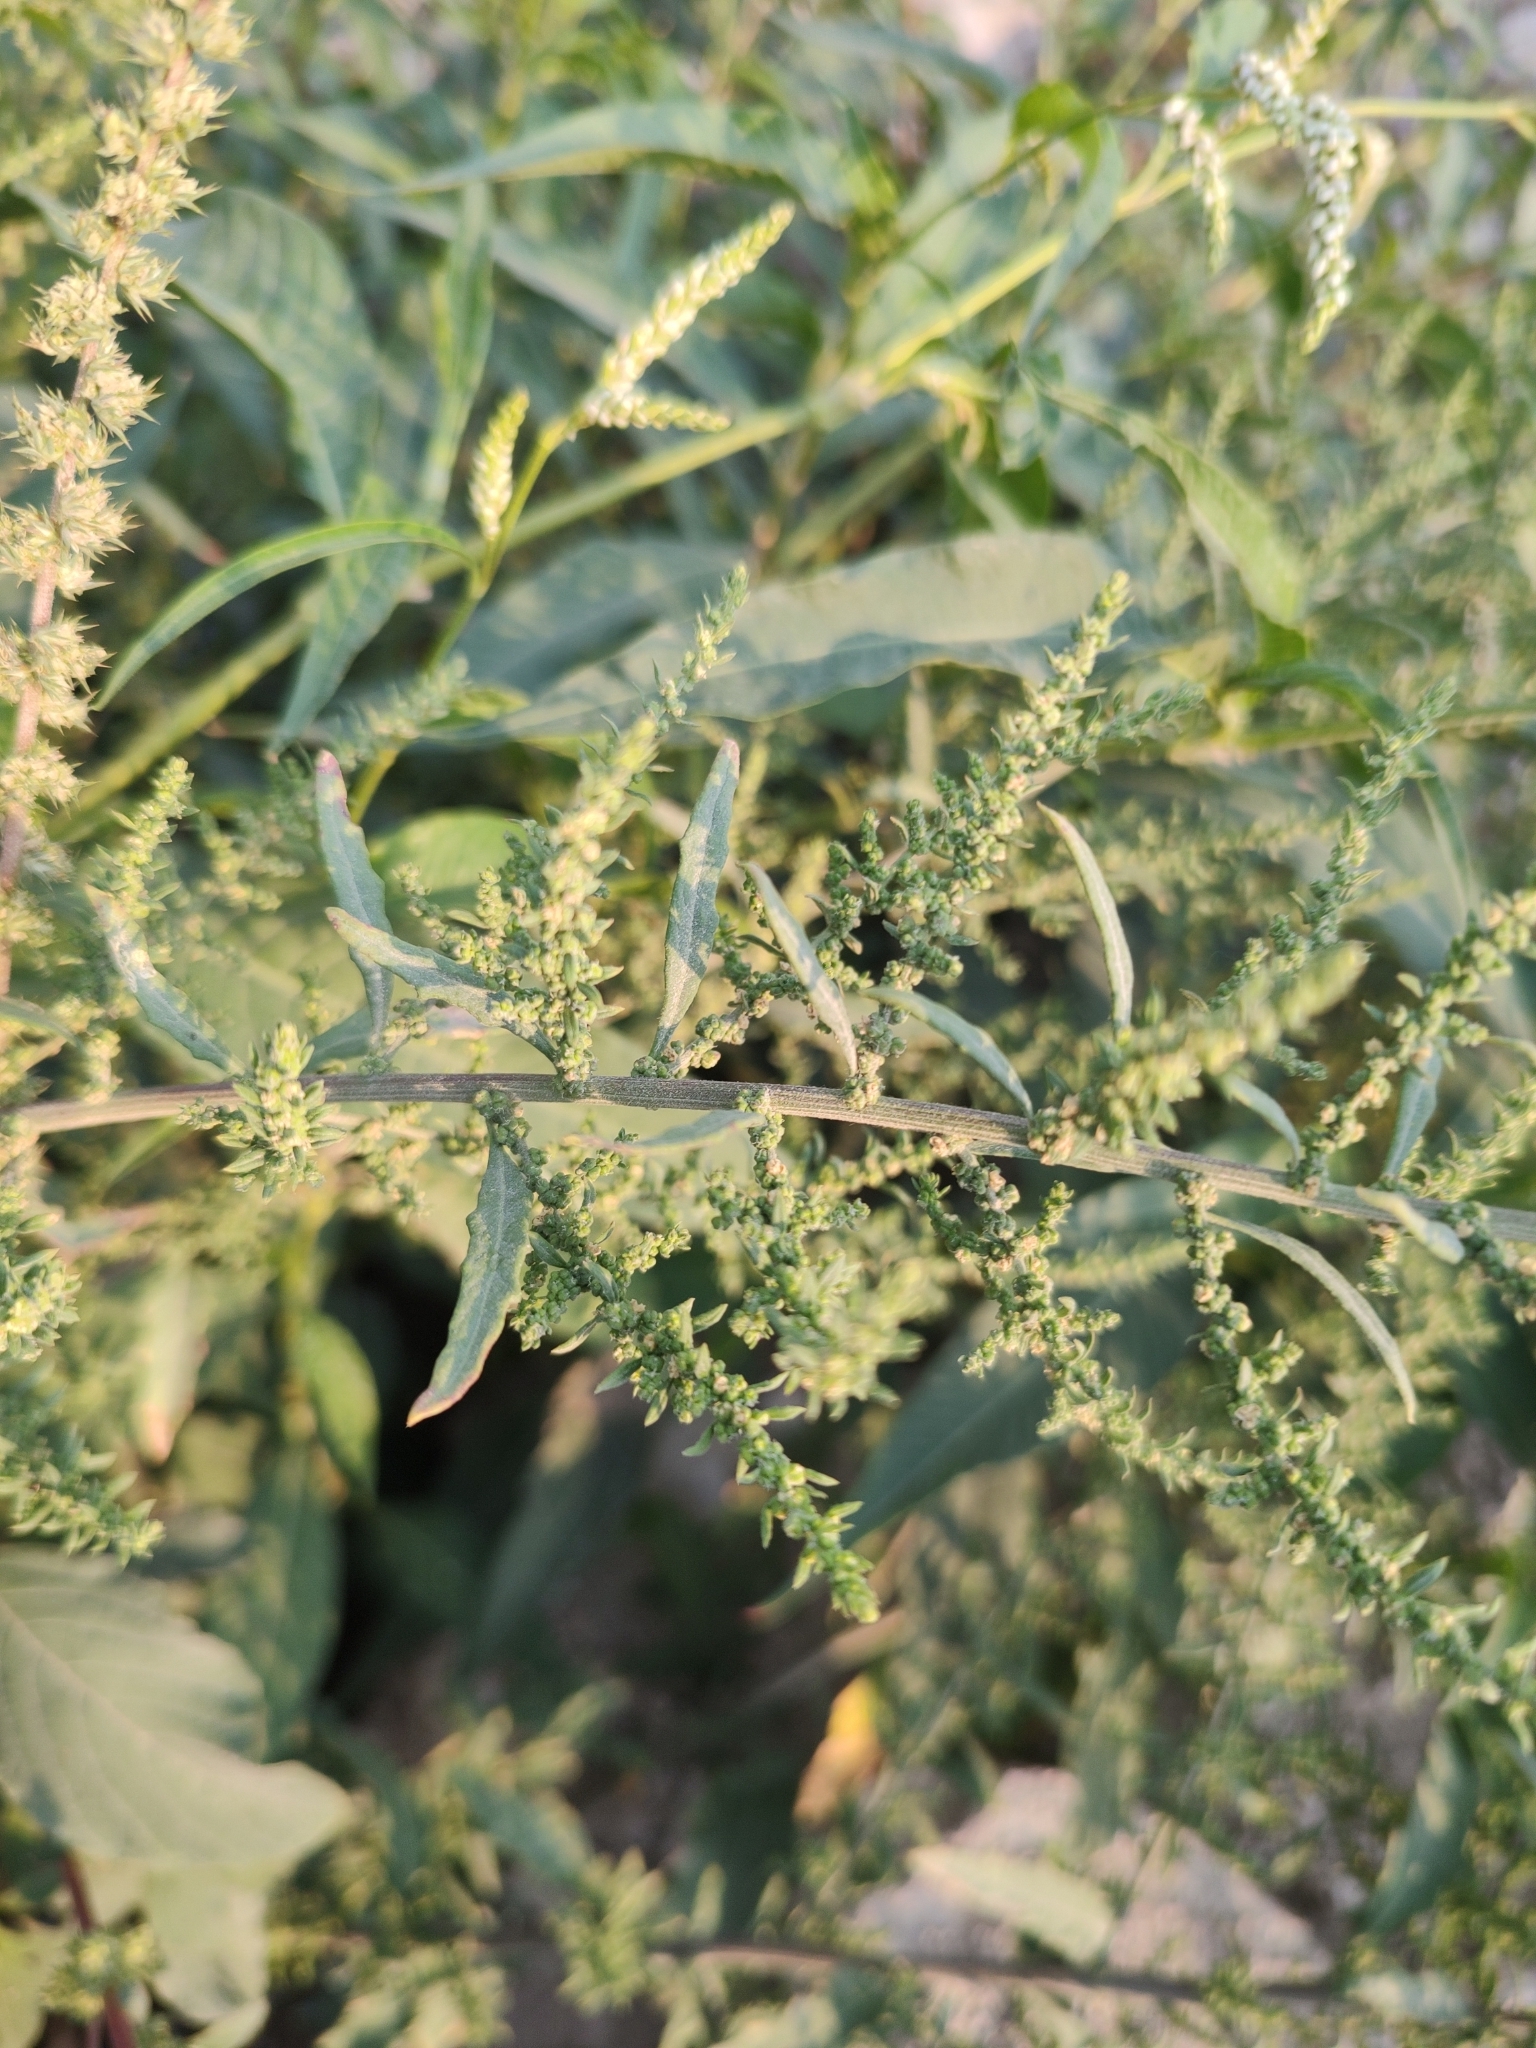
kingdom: Plantae
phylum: Tracheophyta
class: Magnoliopsida
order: Caryophyllales
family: Polygonaceae
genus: Persicaria
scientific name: Persicaria lapathifolia
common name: Curlytop knotweed
